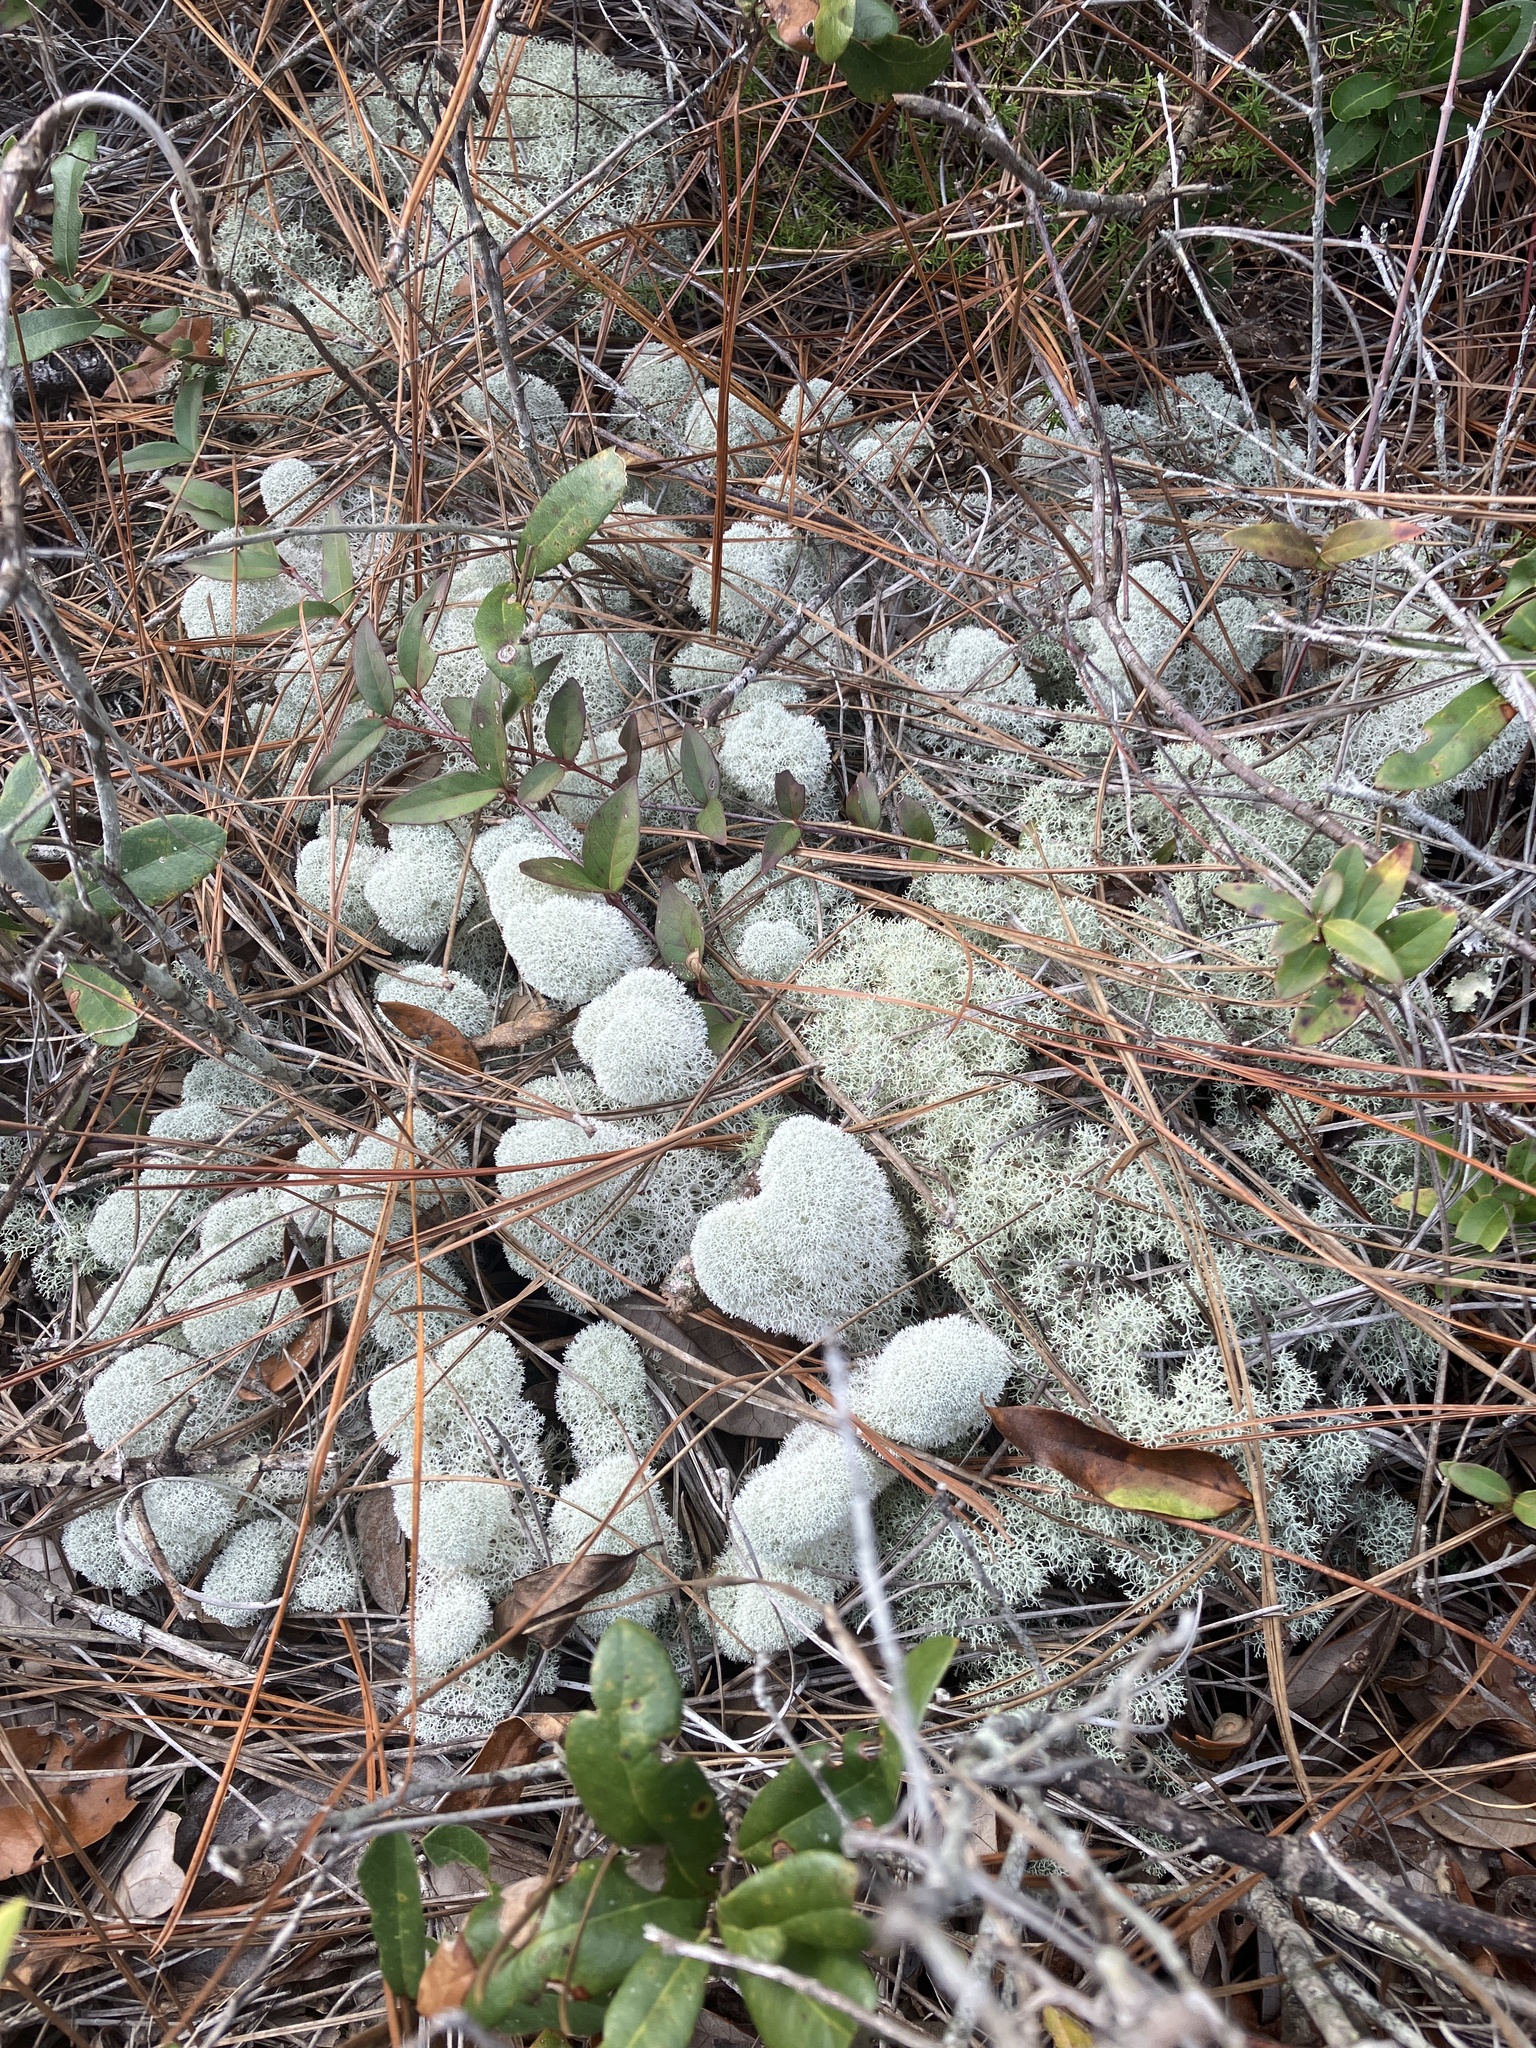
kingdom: Fungi
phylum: Ascomycota
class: Lecanoromycetes
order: Lecanorales
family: Cladoniaceae
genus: Cladonia
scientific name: Cladonia evansii
